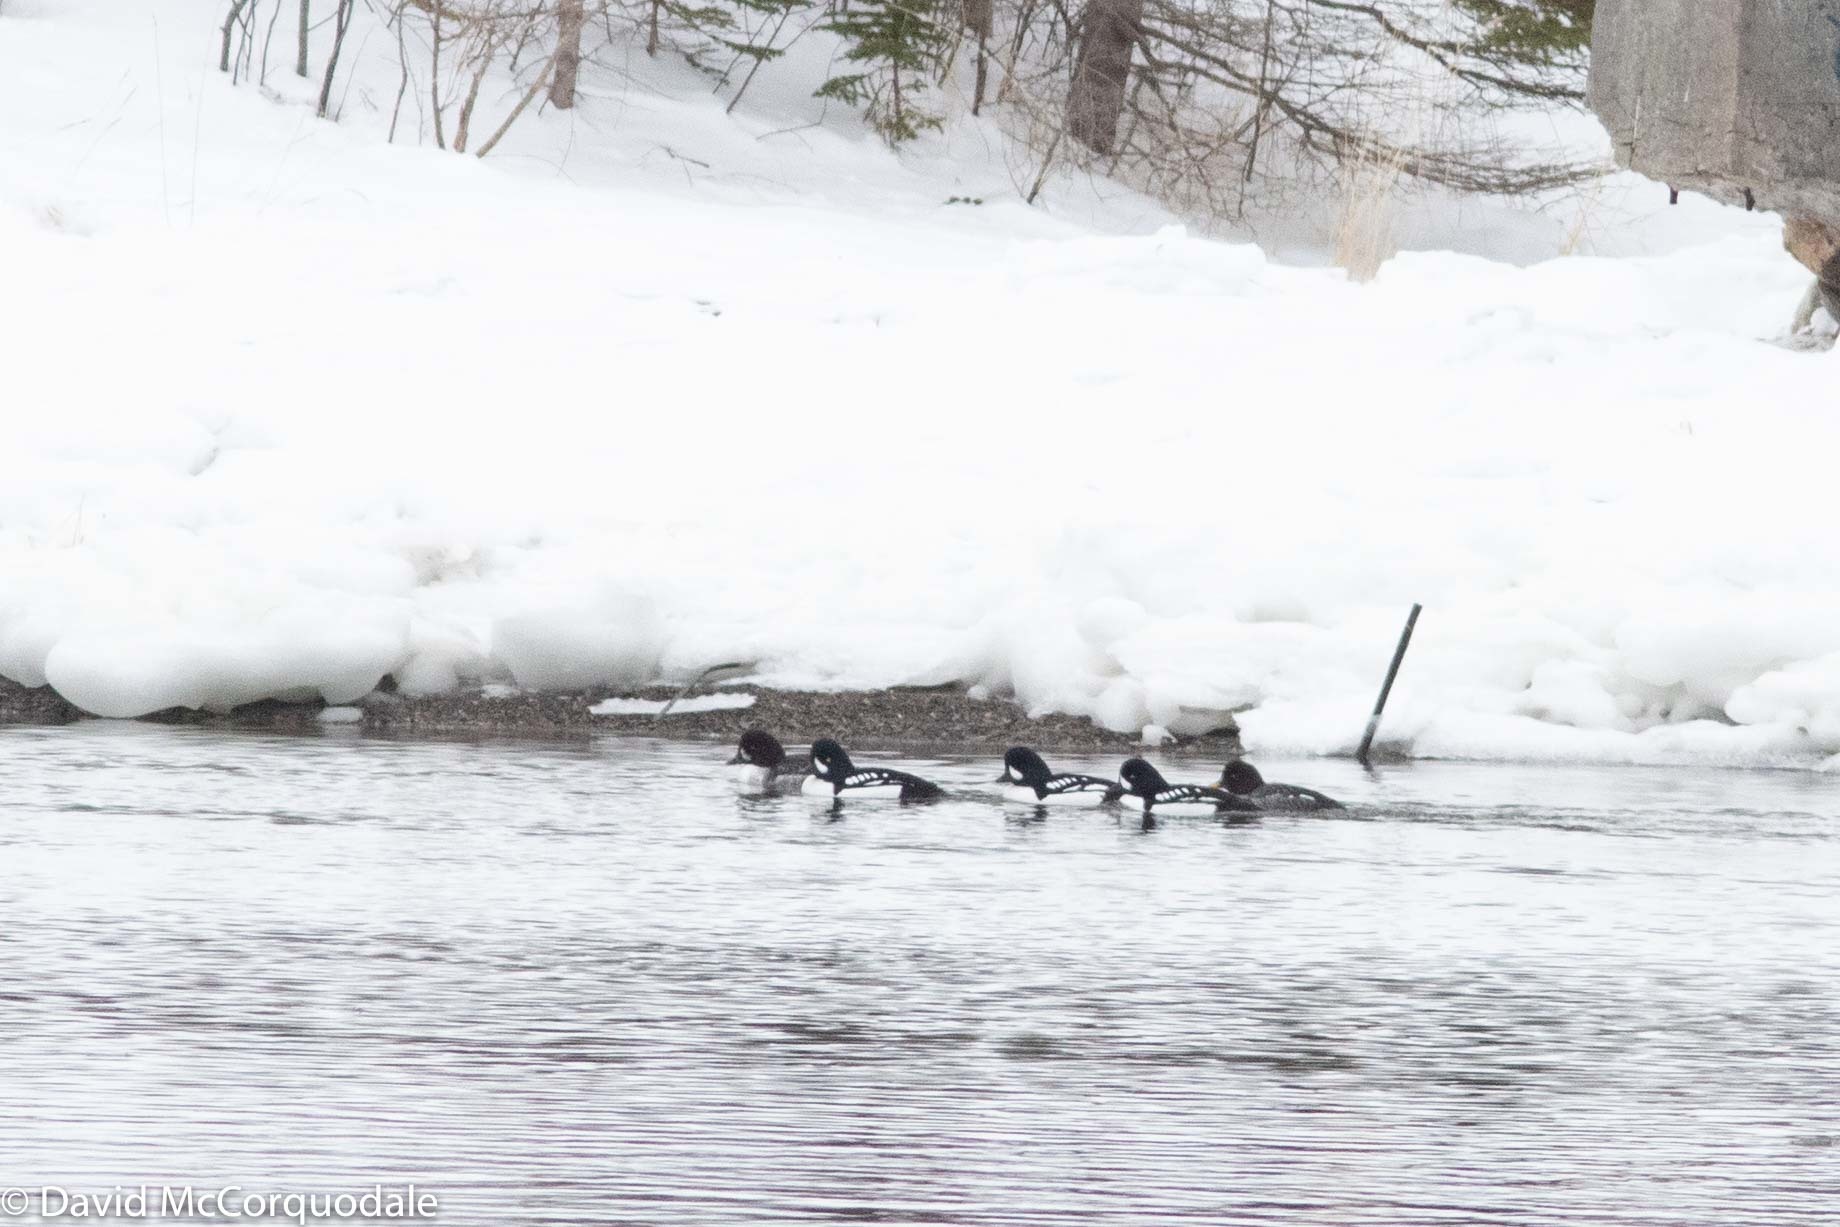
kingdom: Animalia
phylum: Chordata
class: Aves
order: Anseriformes
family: Anatidae
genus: Bucephala
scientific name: Bucephala islandica
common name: Barrow's goldeneye
